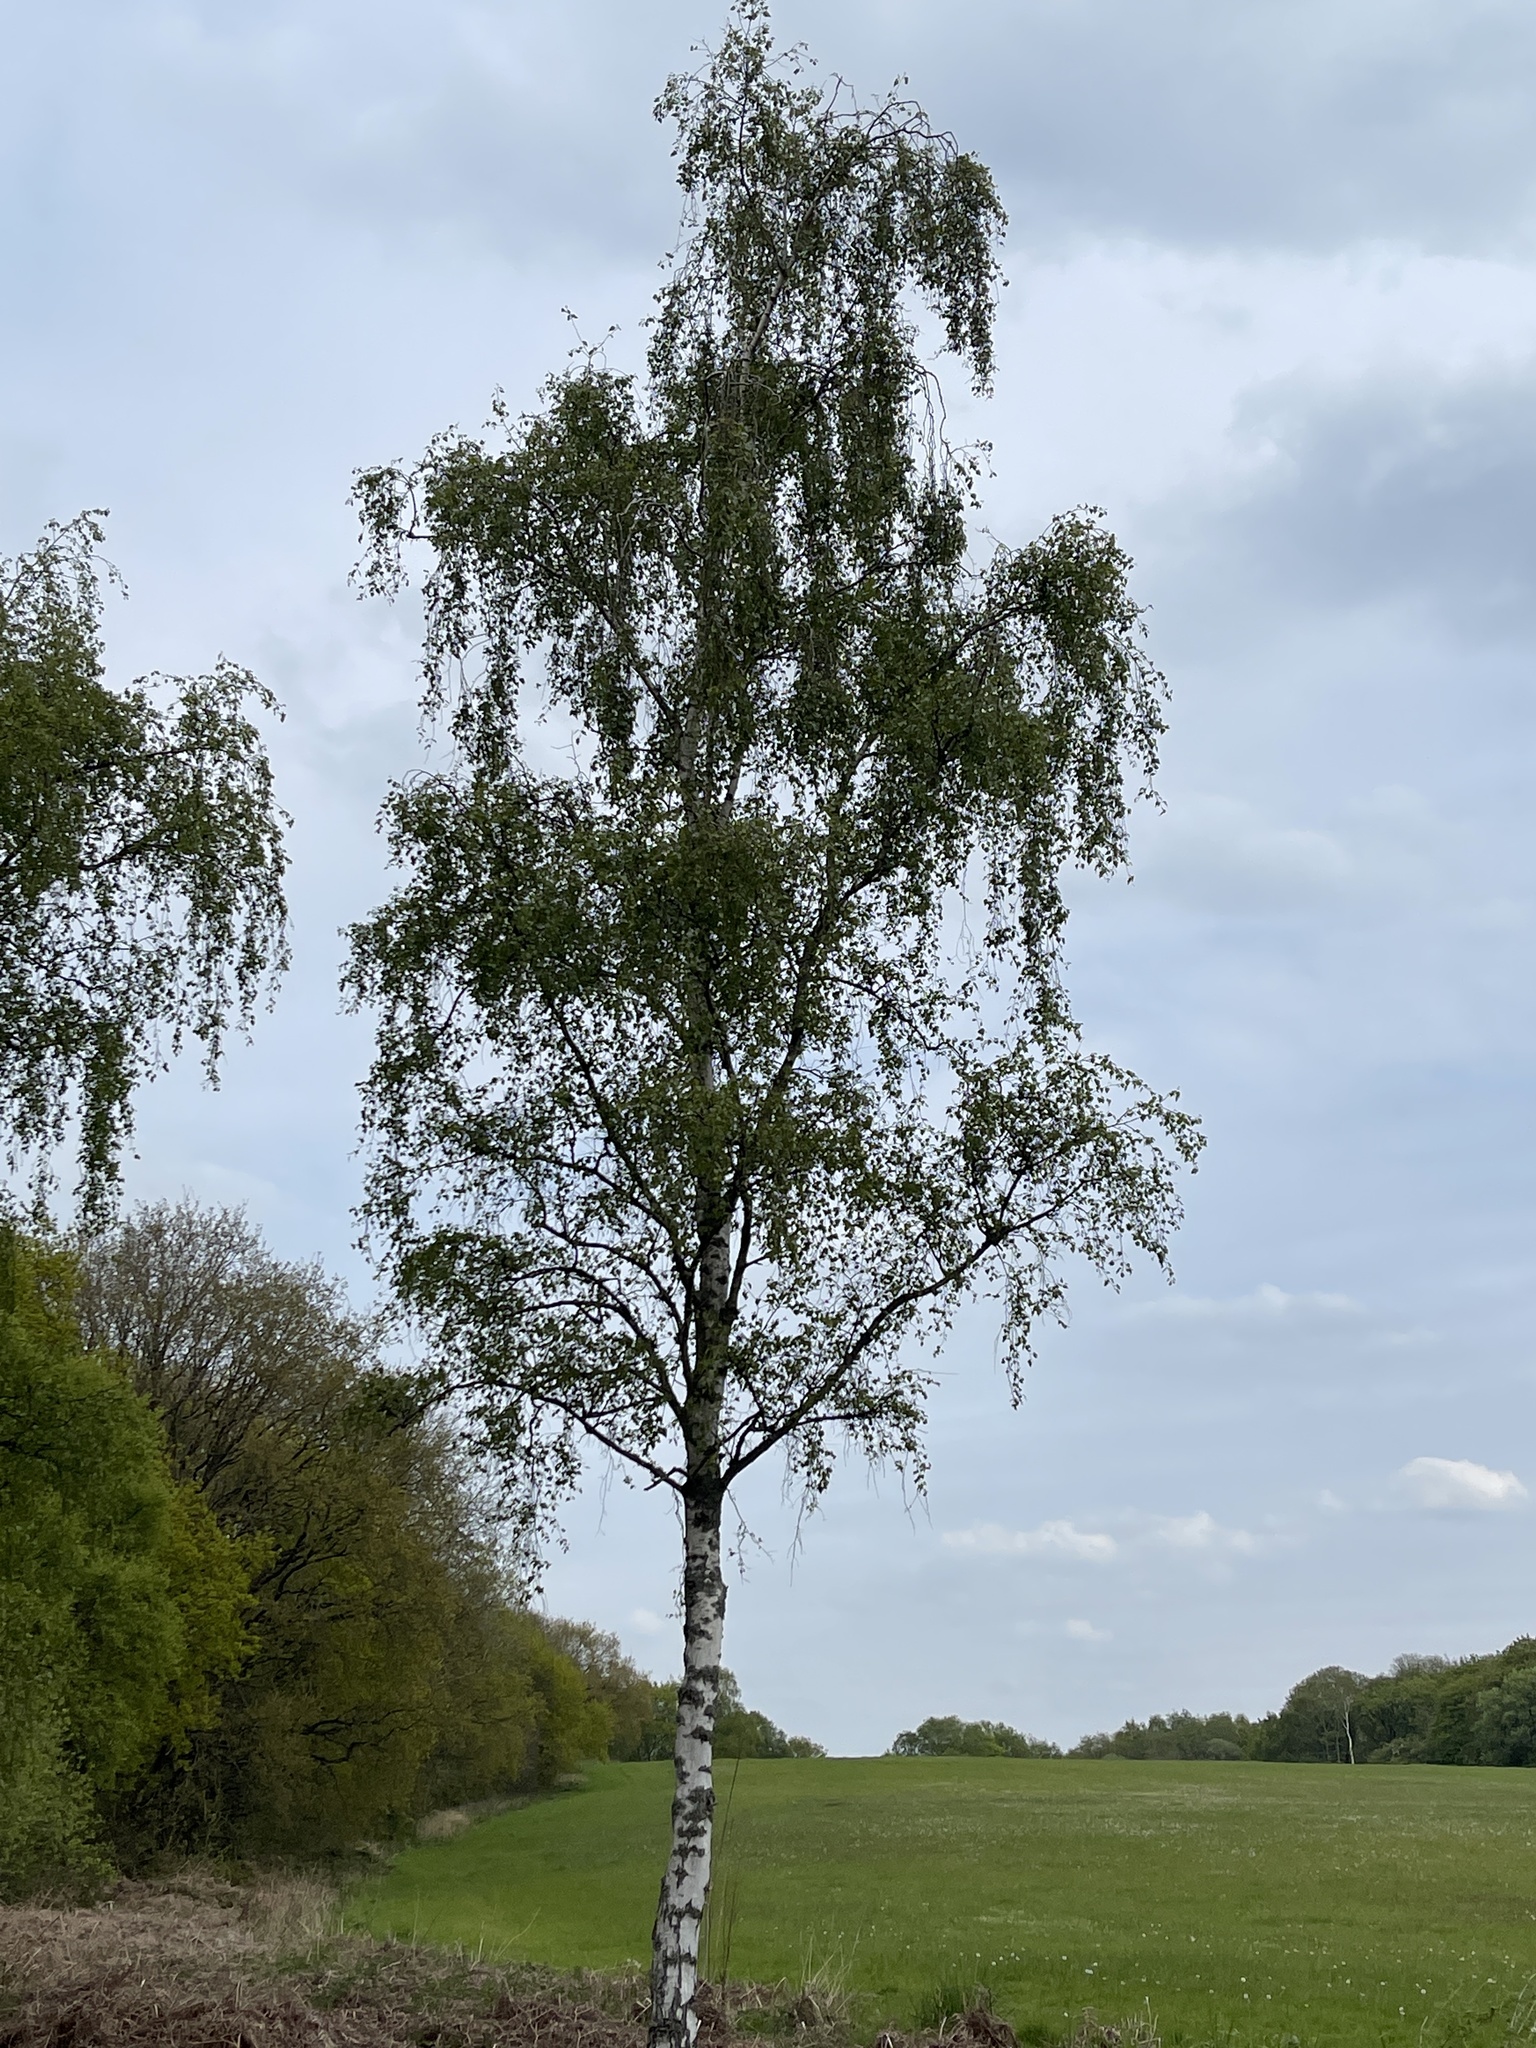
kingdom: Plantae
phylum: Tracheophyta
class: Magnoliopsida
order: Fagales
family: Betulaceae
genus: Betula
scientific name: Betula pendula
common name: Silver birch
